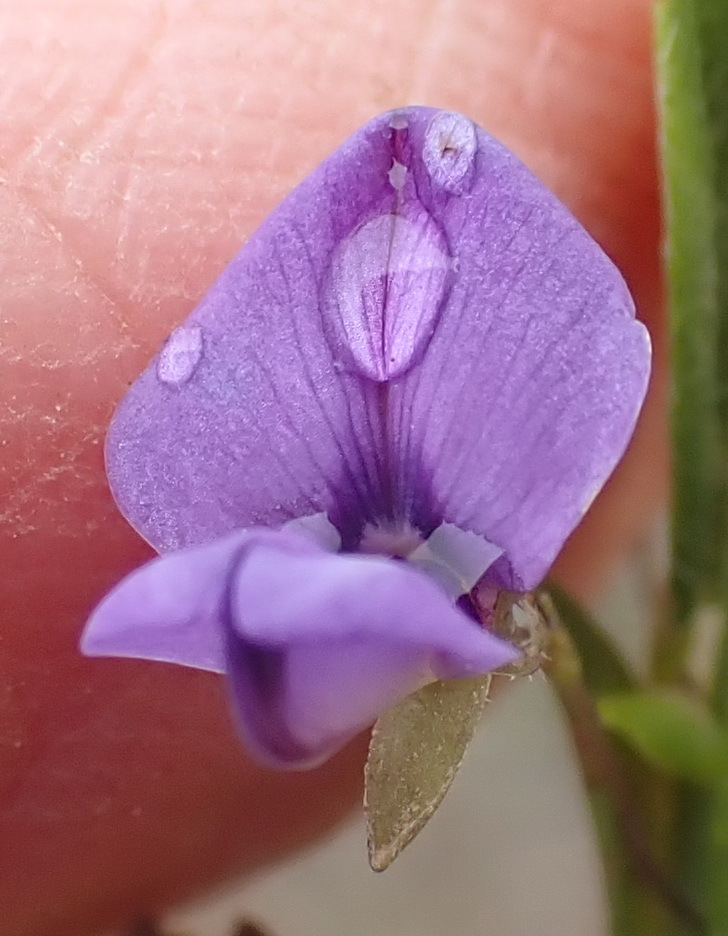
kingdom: Plantae
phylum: Tracheophyta
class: Magnoliopsida
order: Fabales
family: Fabaceae
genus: Psoralea
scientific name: Psoralea plauta
